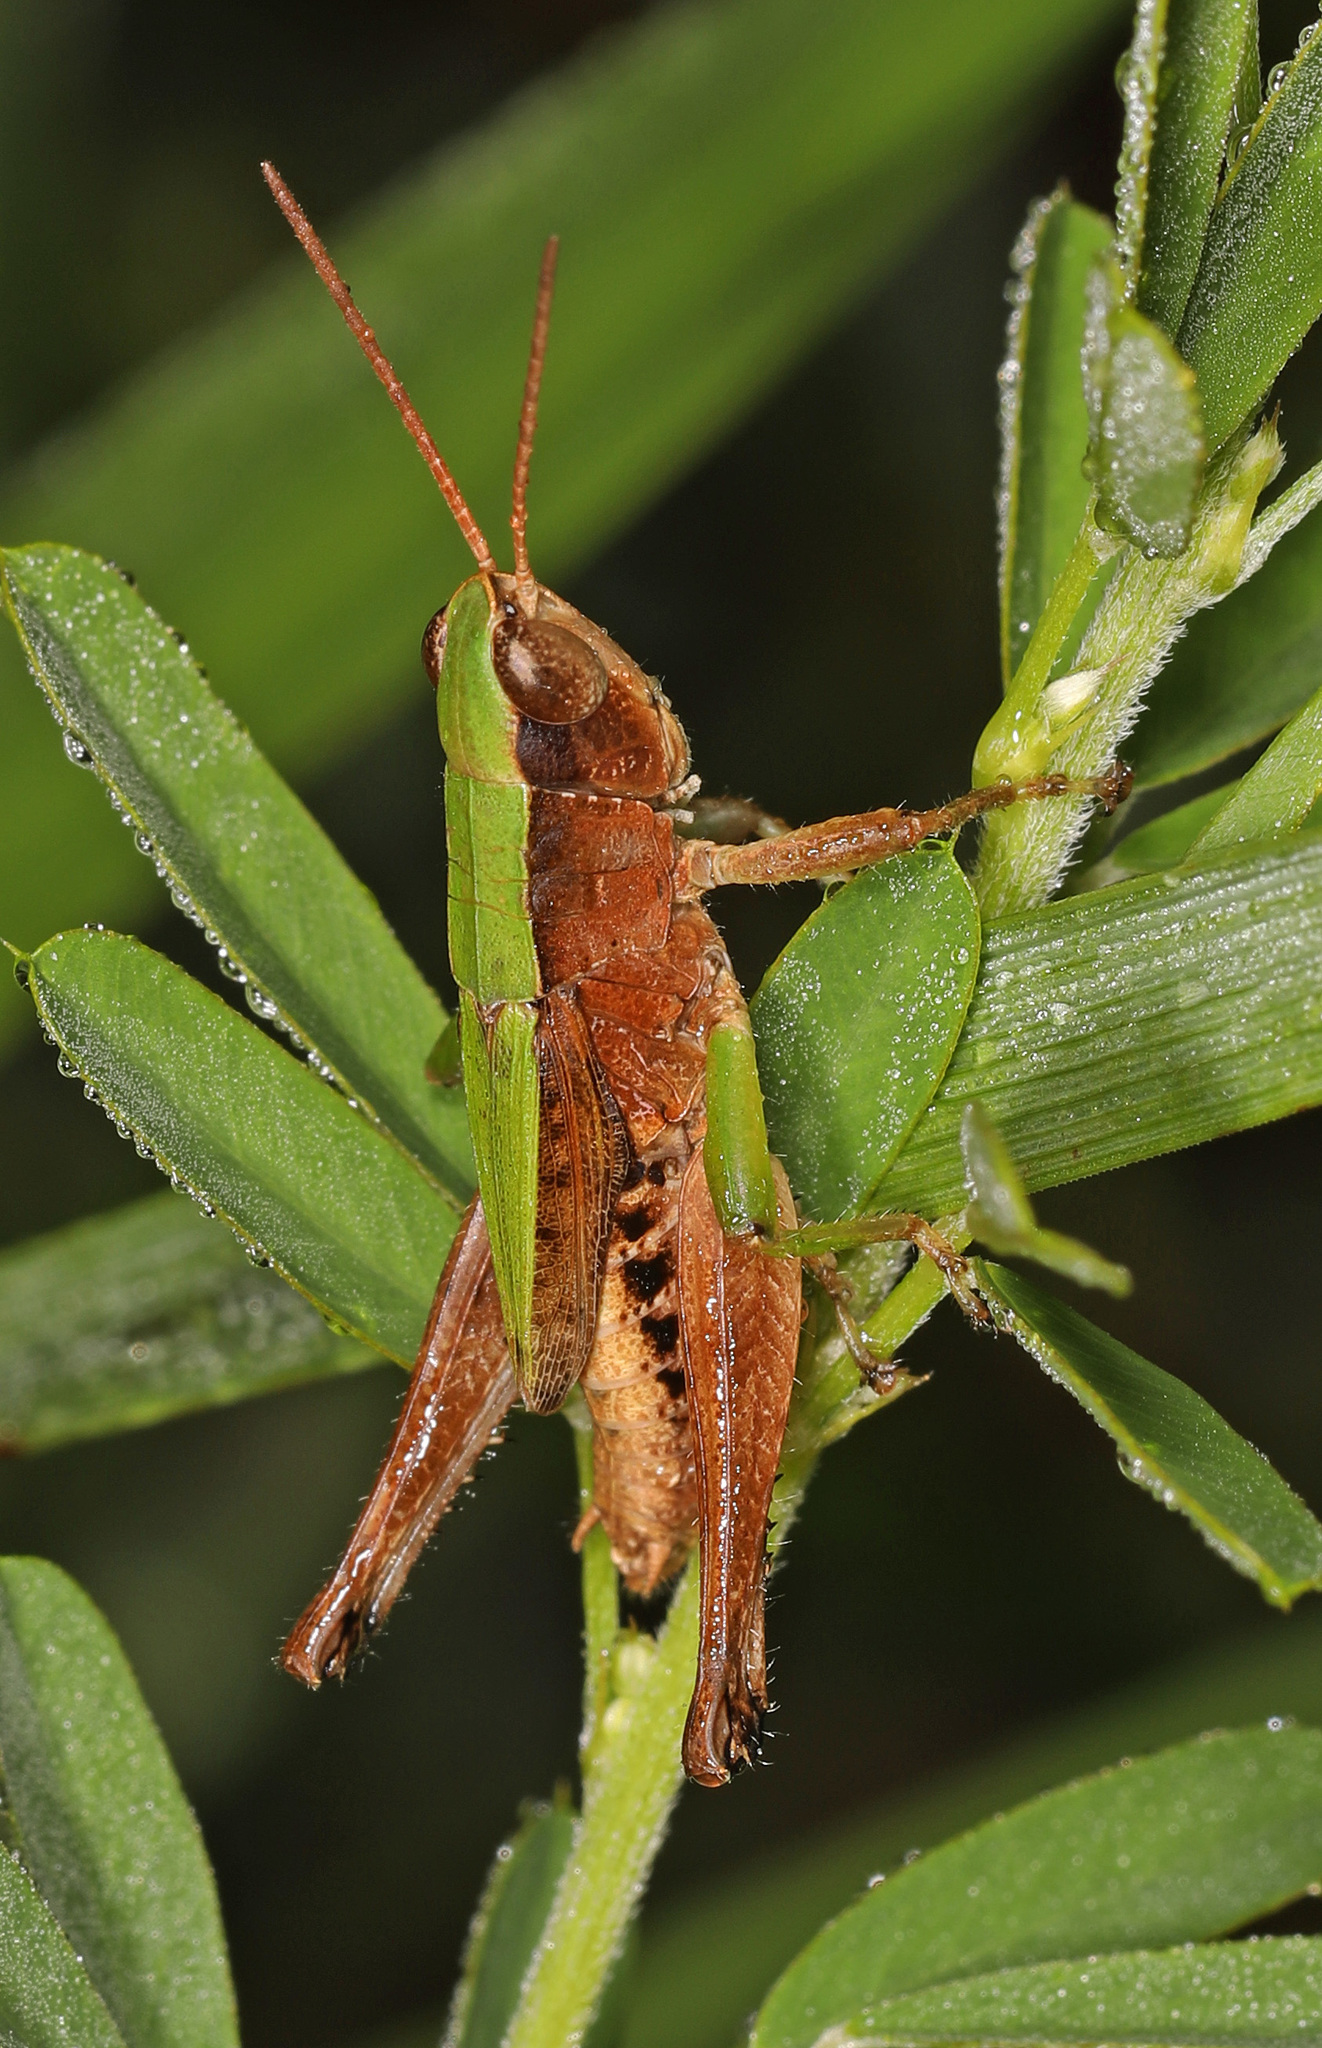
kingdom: Animalia
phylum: Arthropoda
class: Insecta
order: Orthoptera
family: Acrididae
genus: Dichromorpha
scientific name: Dichromorpha viridis
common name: Short-winged green grasshopper
